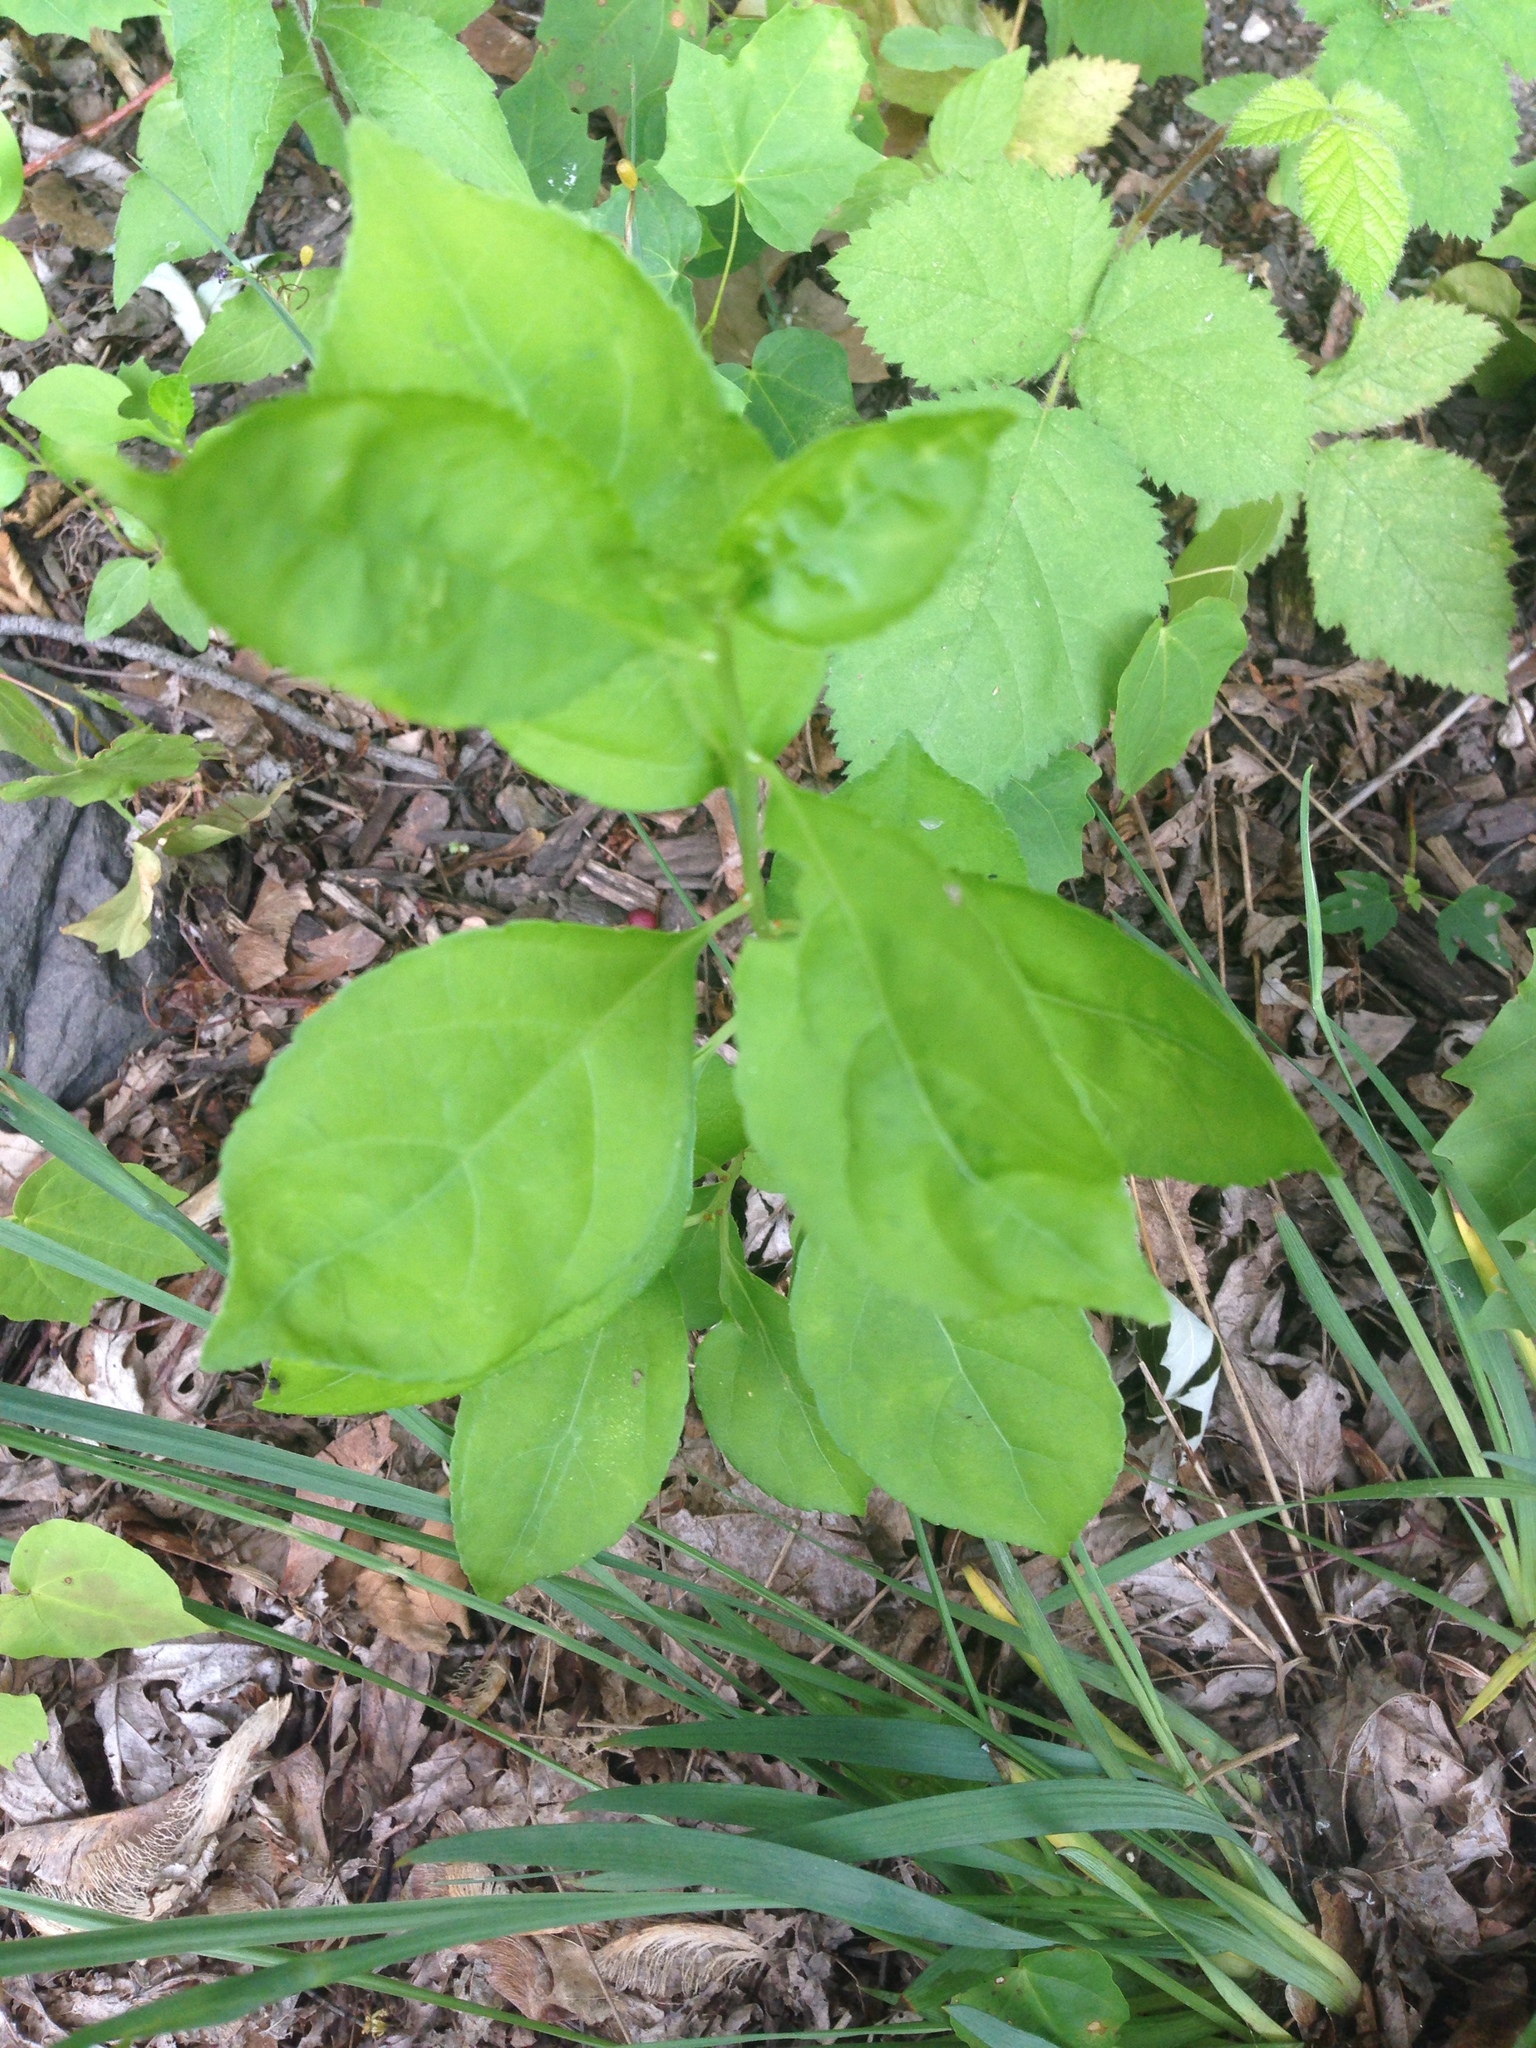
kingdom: Plantae
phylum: Tracheophyta
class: Magnoliopsida
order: Celastrales
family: Celastraceae
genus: Celastrus
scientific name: Celastrus orbiculatus
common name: Oriental bittersweet
